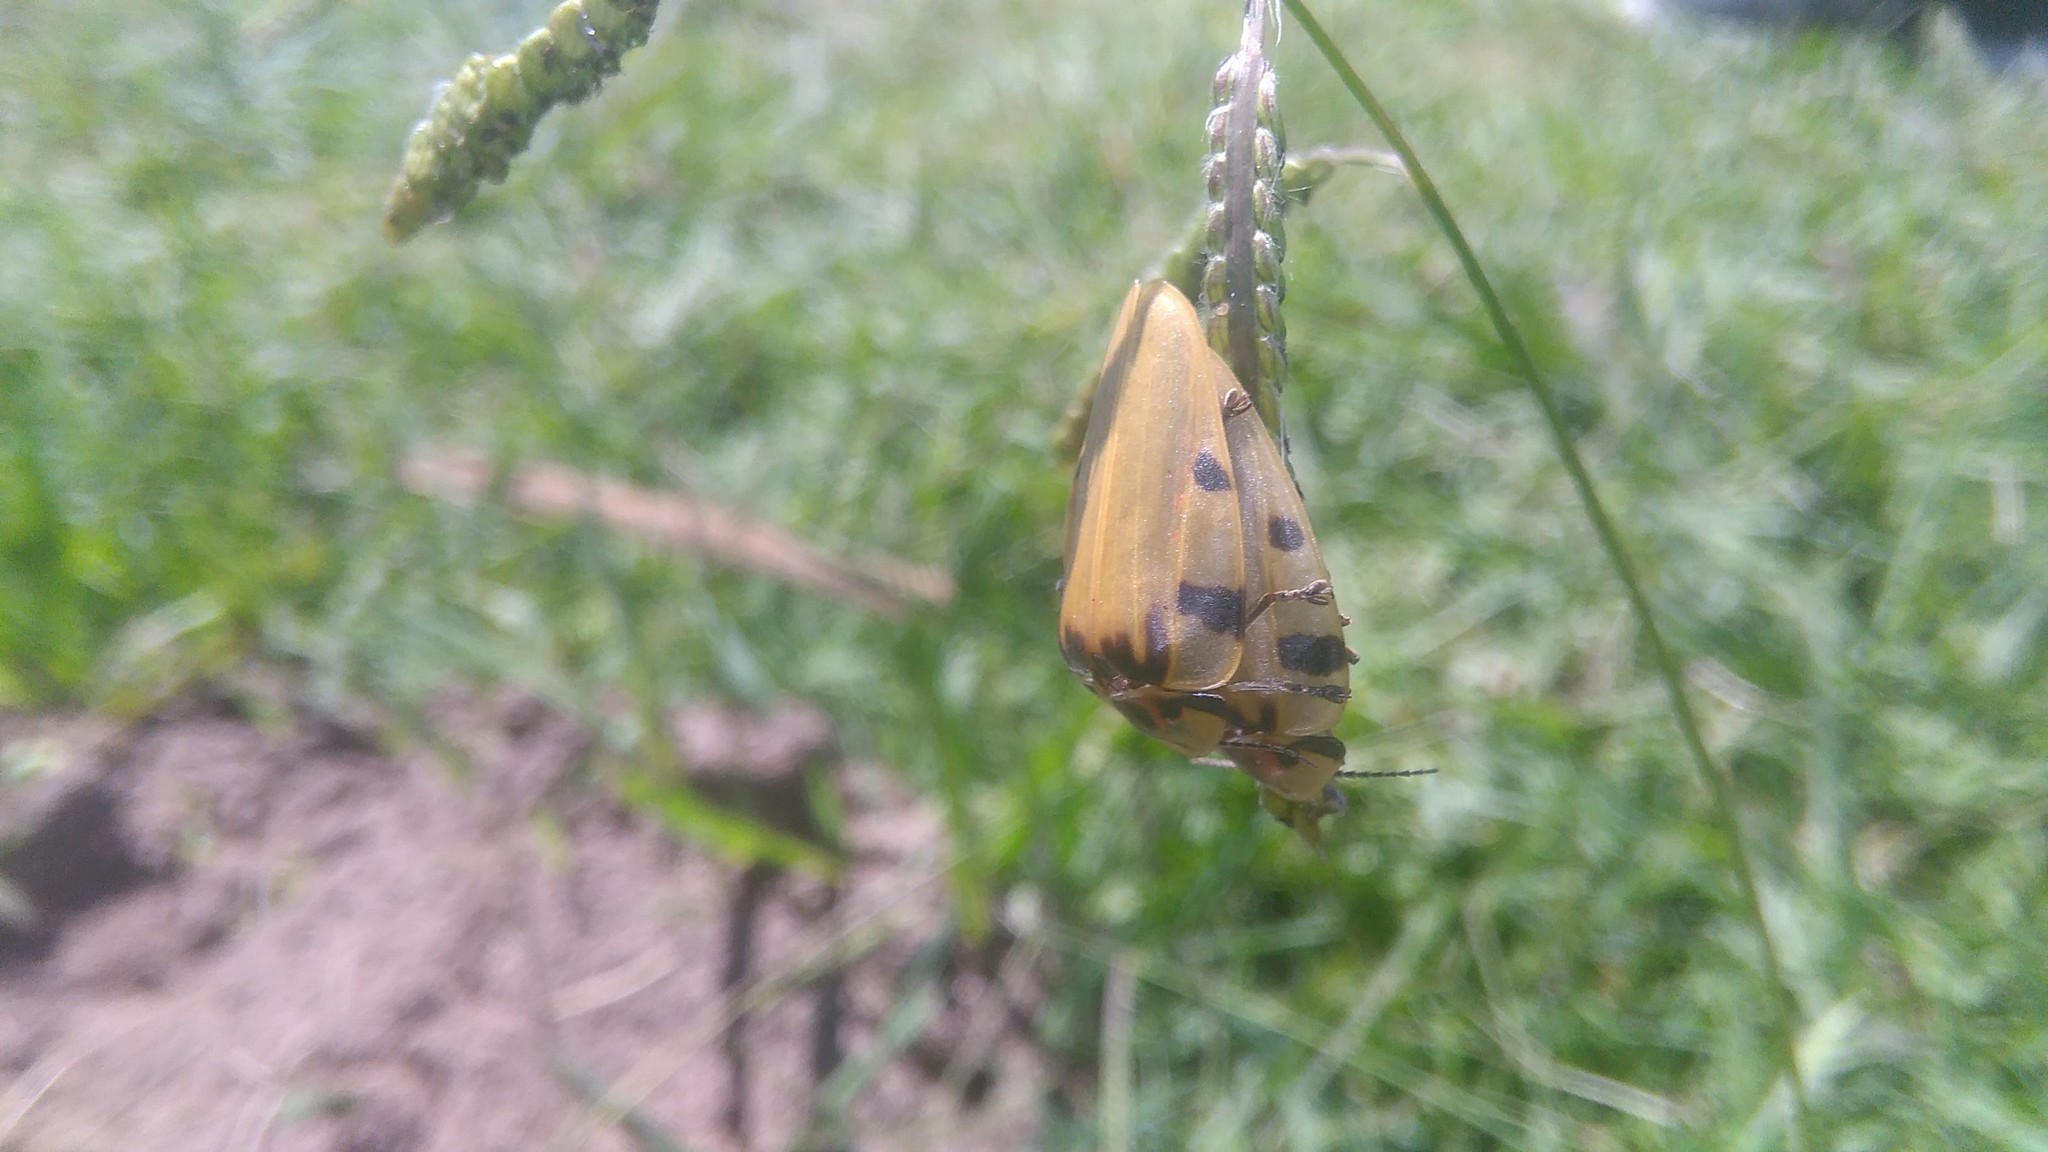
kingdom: Animalia
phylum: Arthropoda
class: Insecta
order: Coleoptera
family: Lampyridae
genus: Aspisoma
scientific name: Aspisoma sticticum
